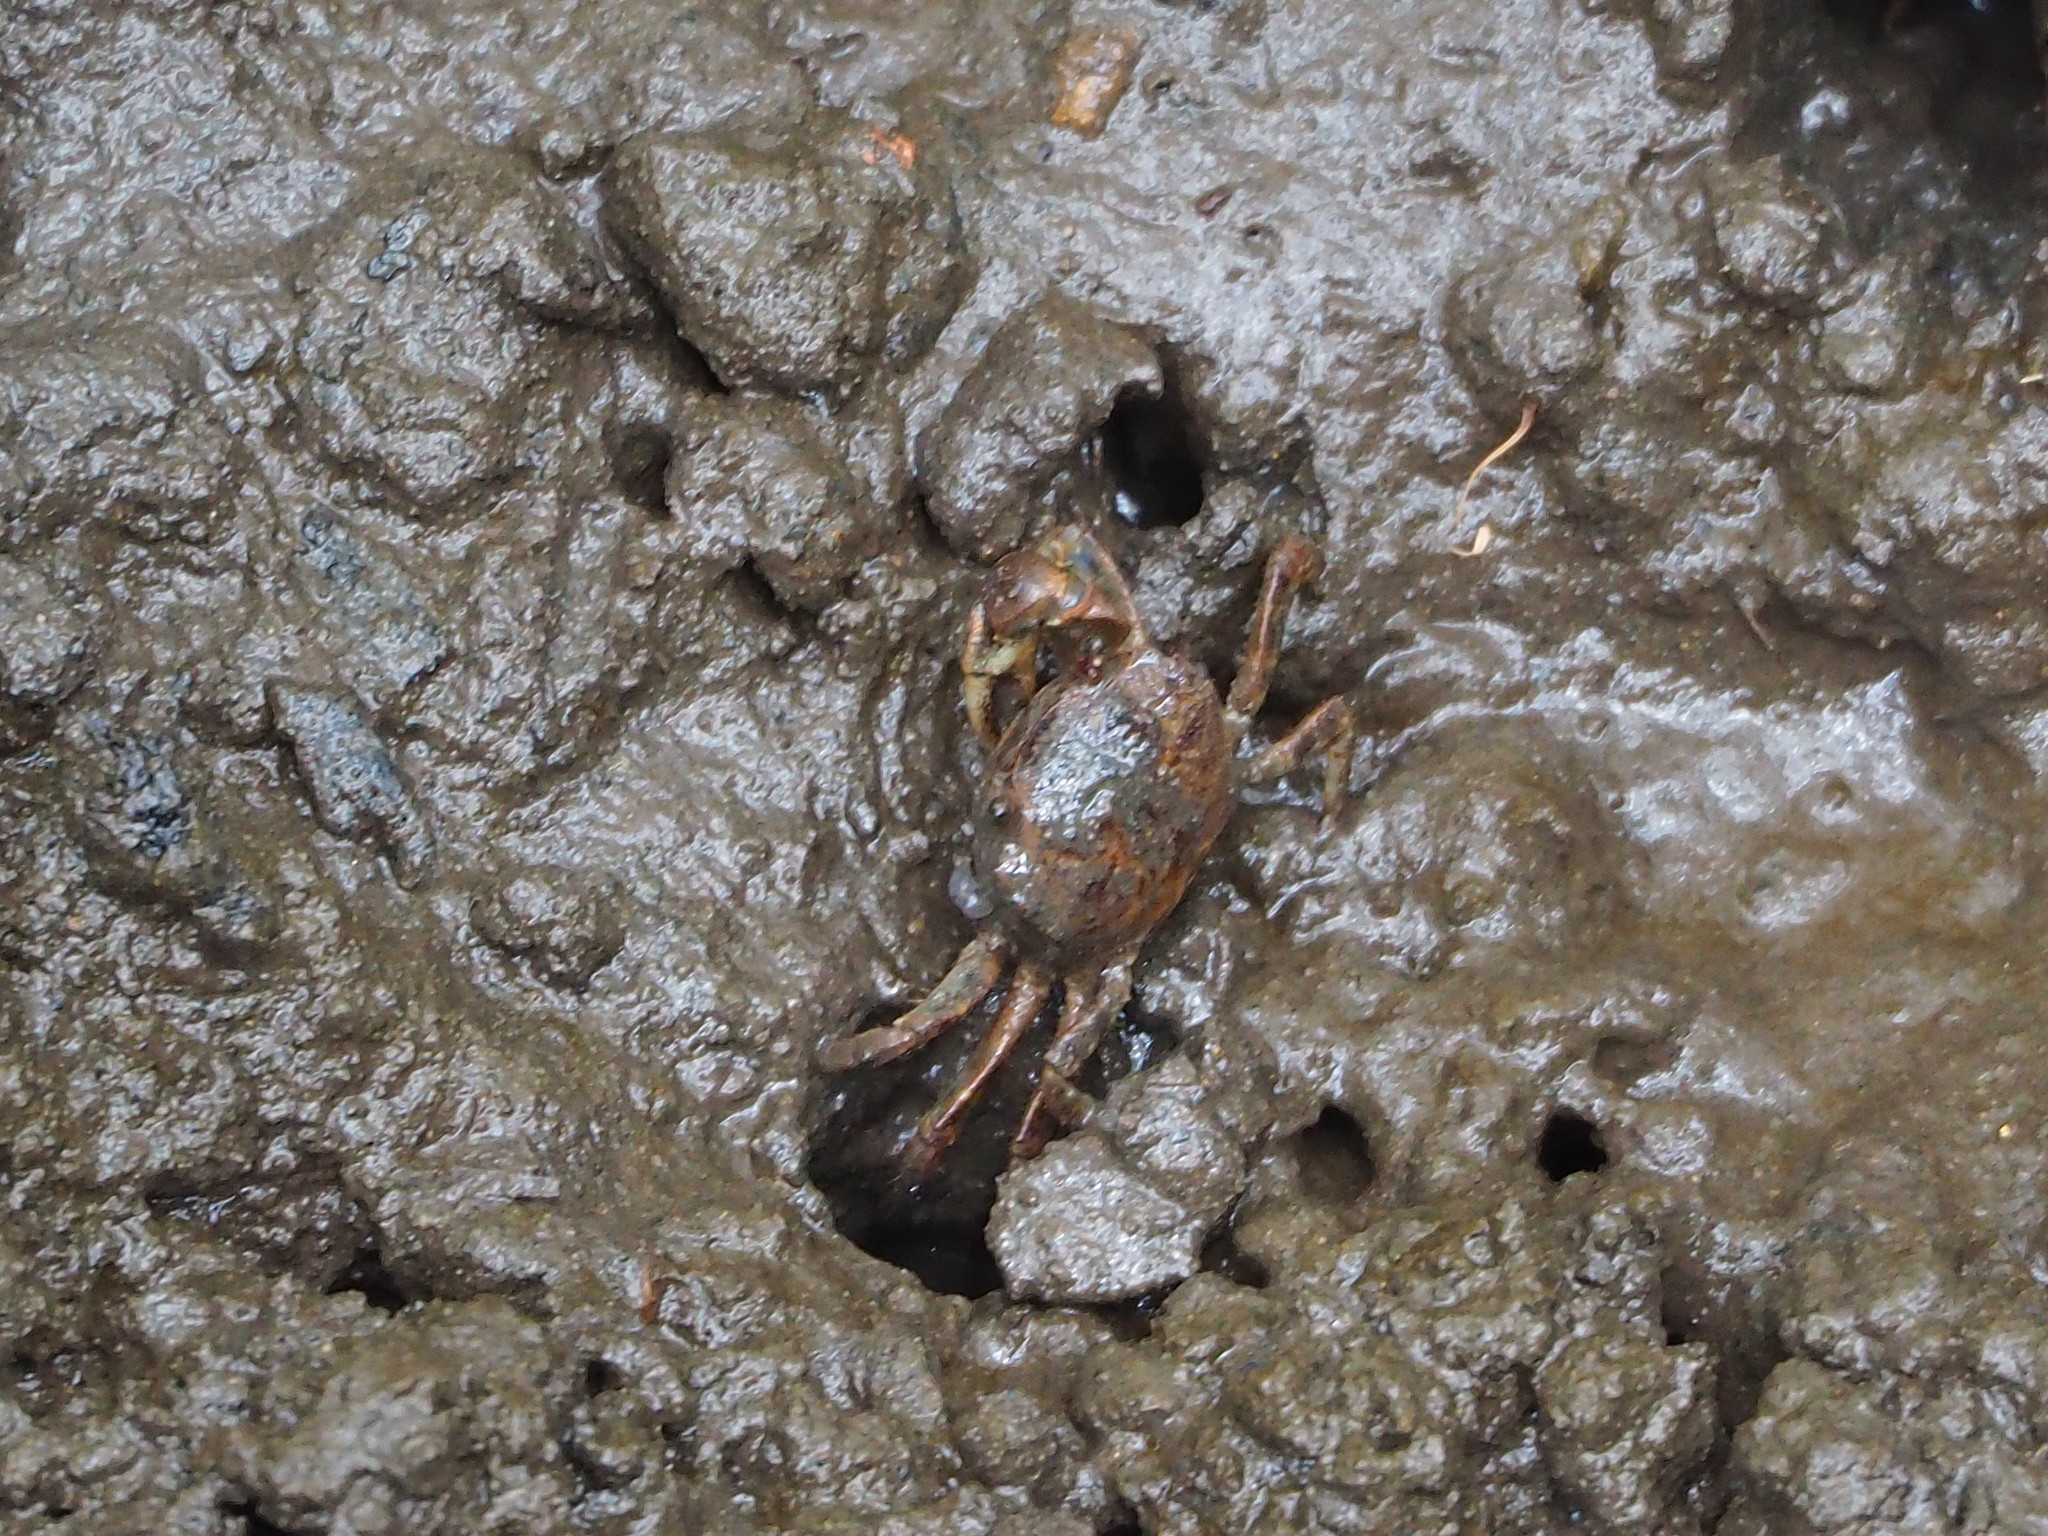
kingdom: Animalia
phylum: Arthropoda
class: Malacostraca
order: Decapoda
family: Varunidae
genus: Pseudohelice
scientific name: Pseudohelice subquadrata
